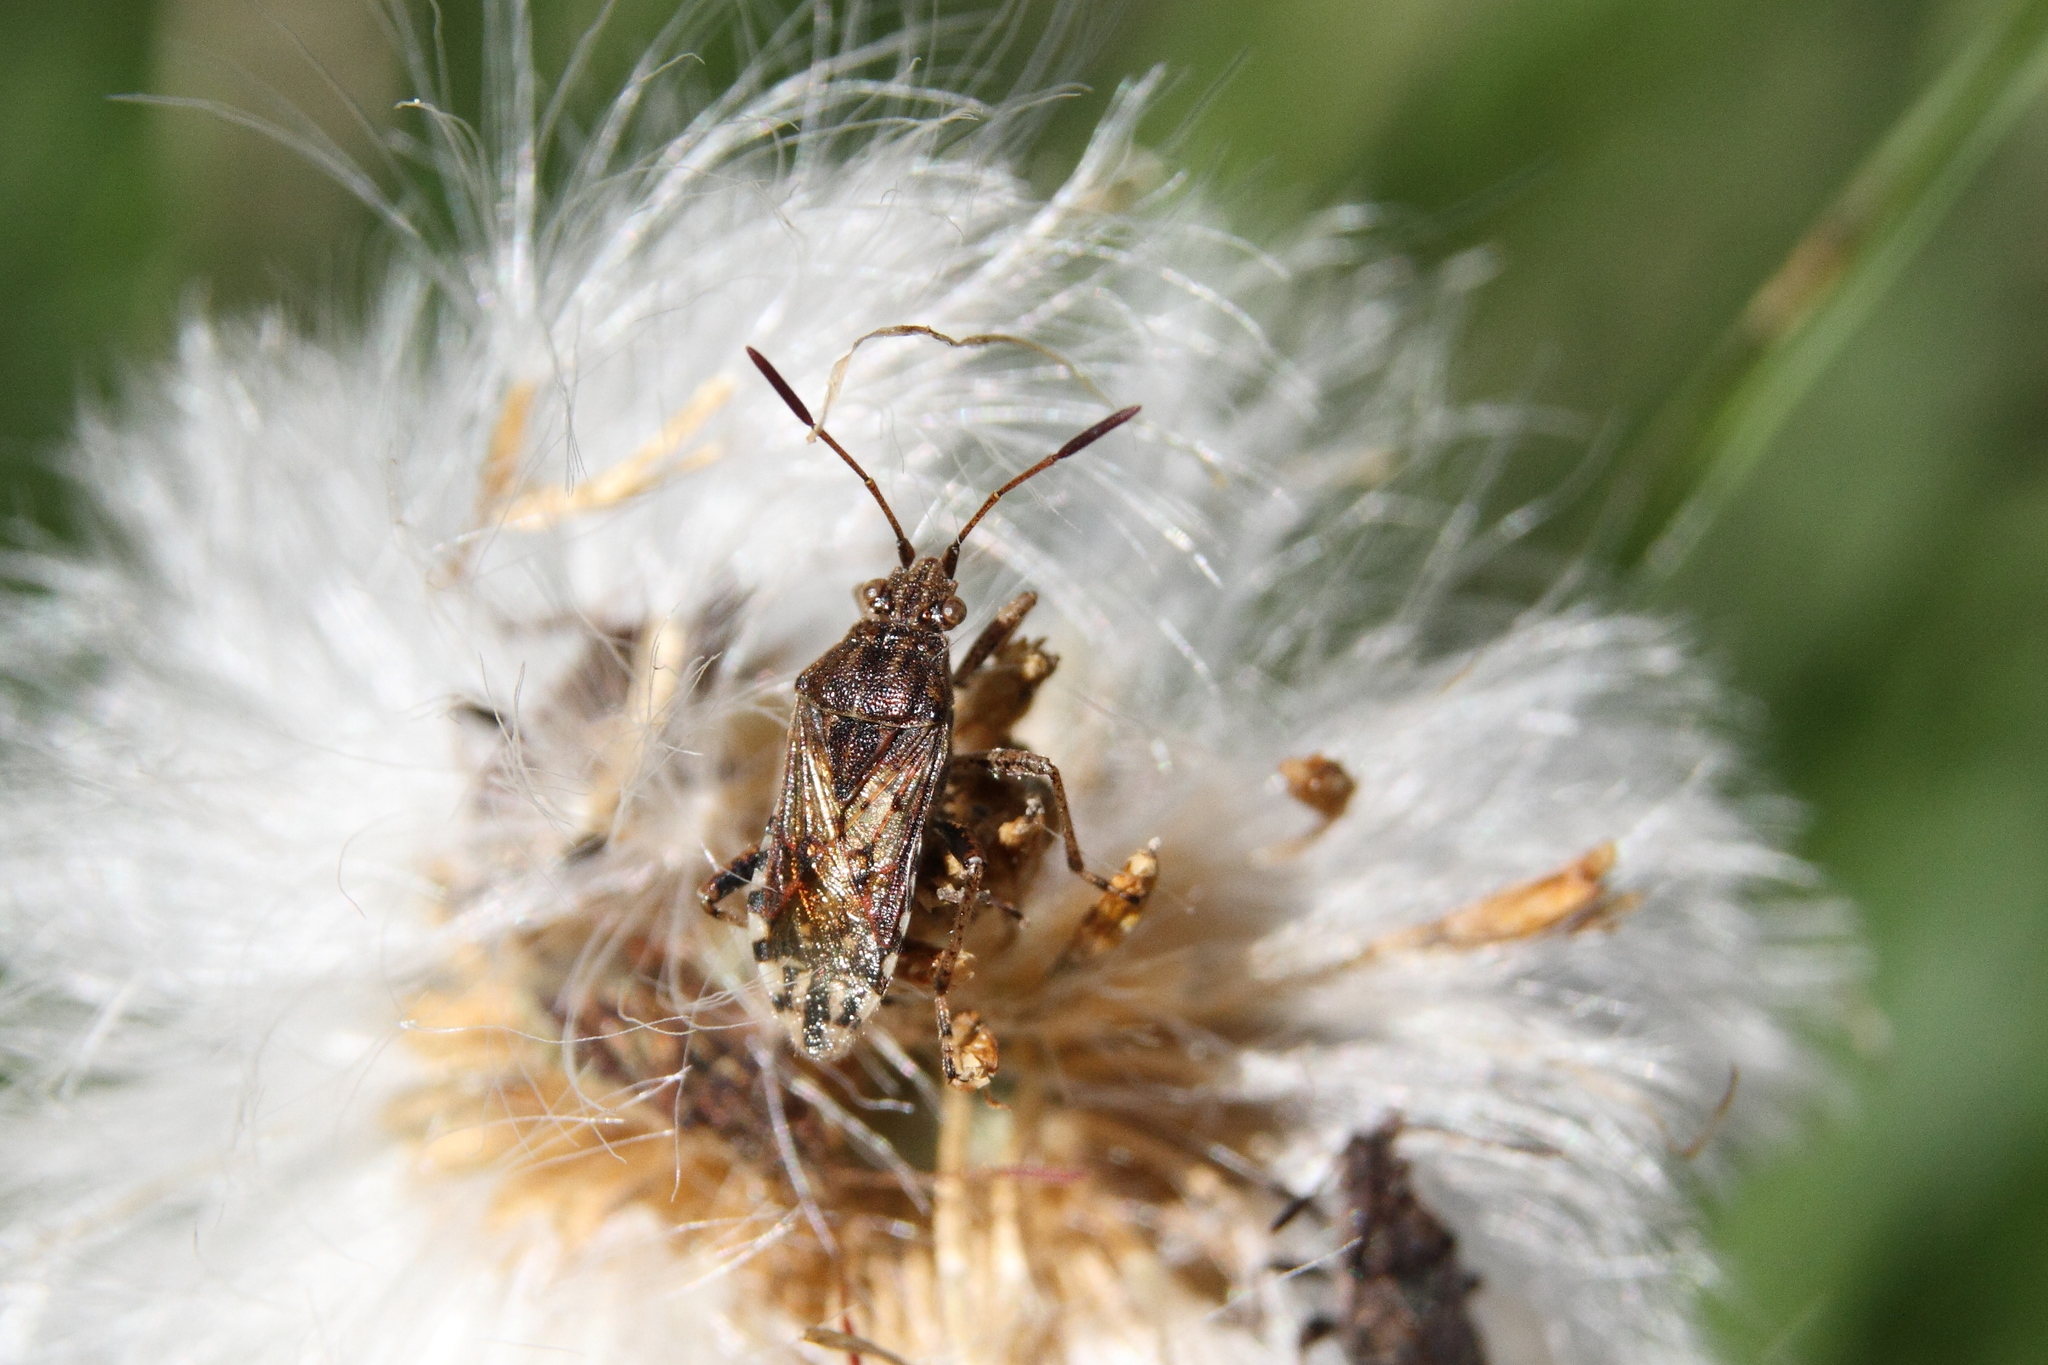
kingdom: Animalia
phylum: Arthropoda
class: Insecta
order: Hemiptera
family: Rhopalidae
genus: Stictopleurus
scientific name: Stictopleurus punctatonervosus
